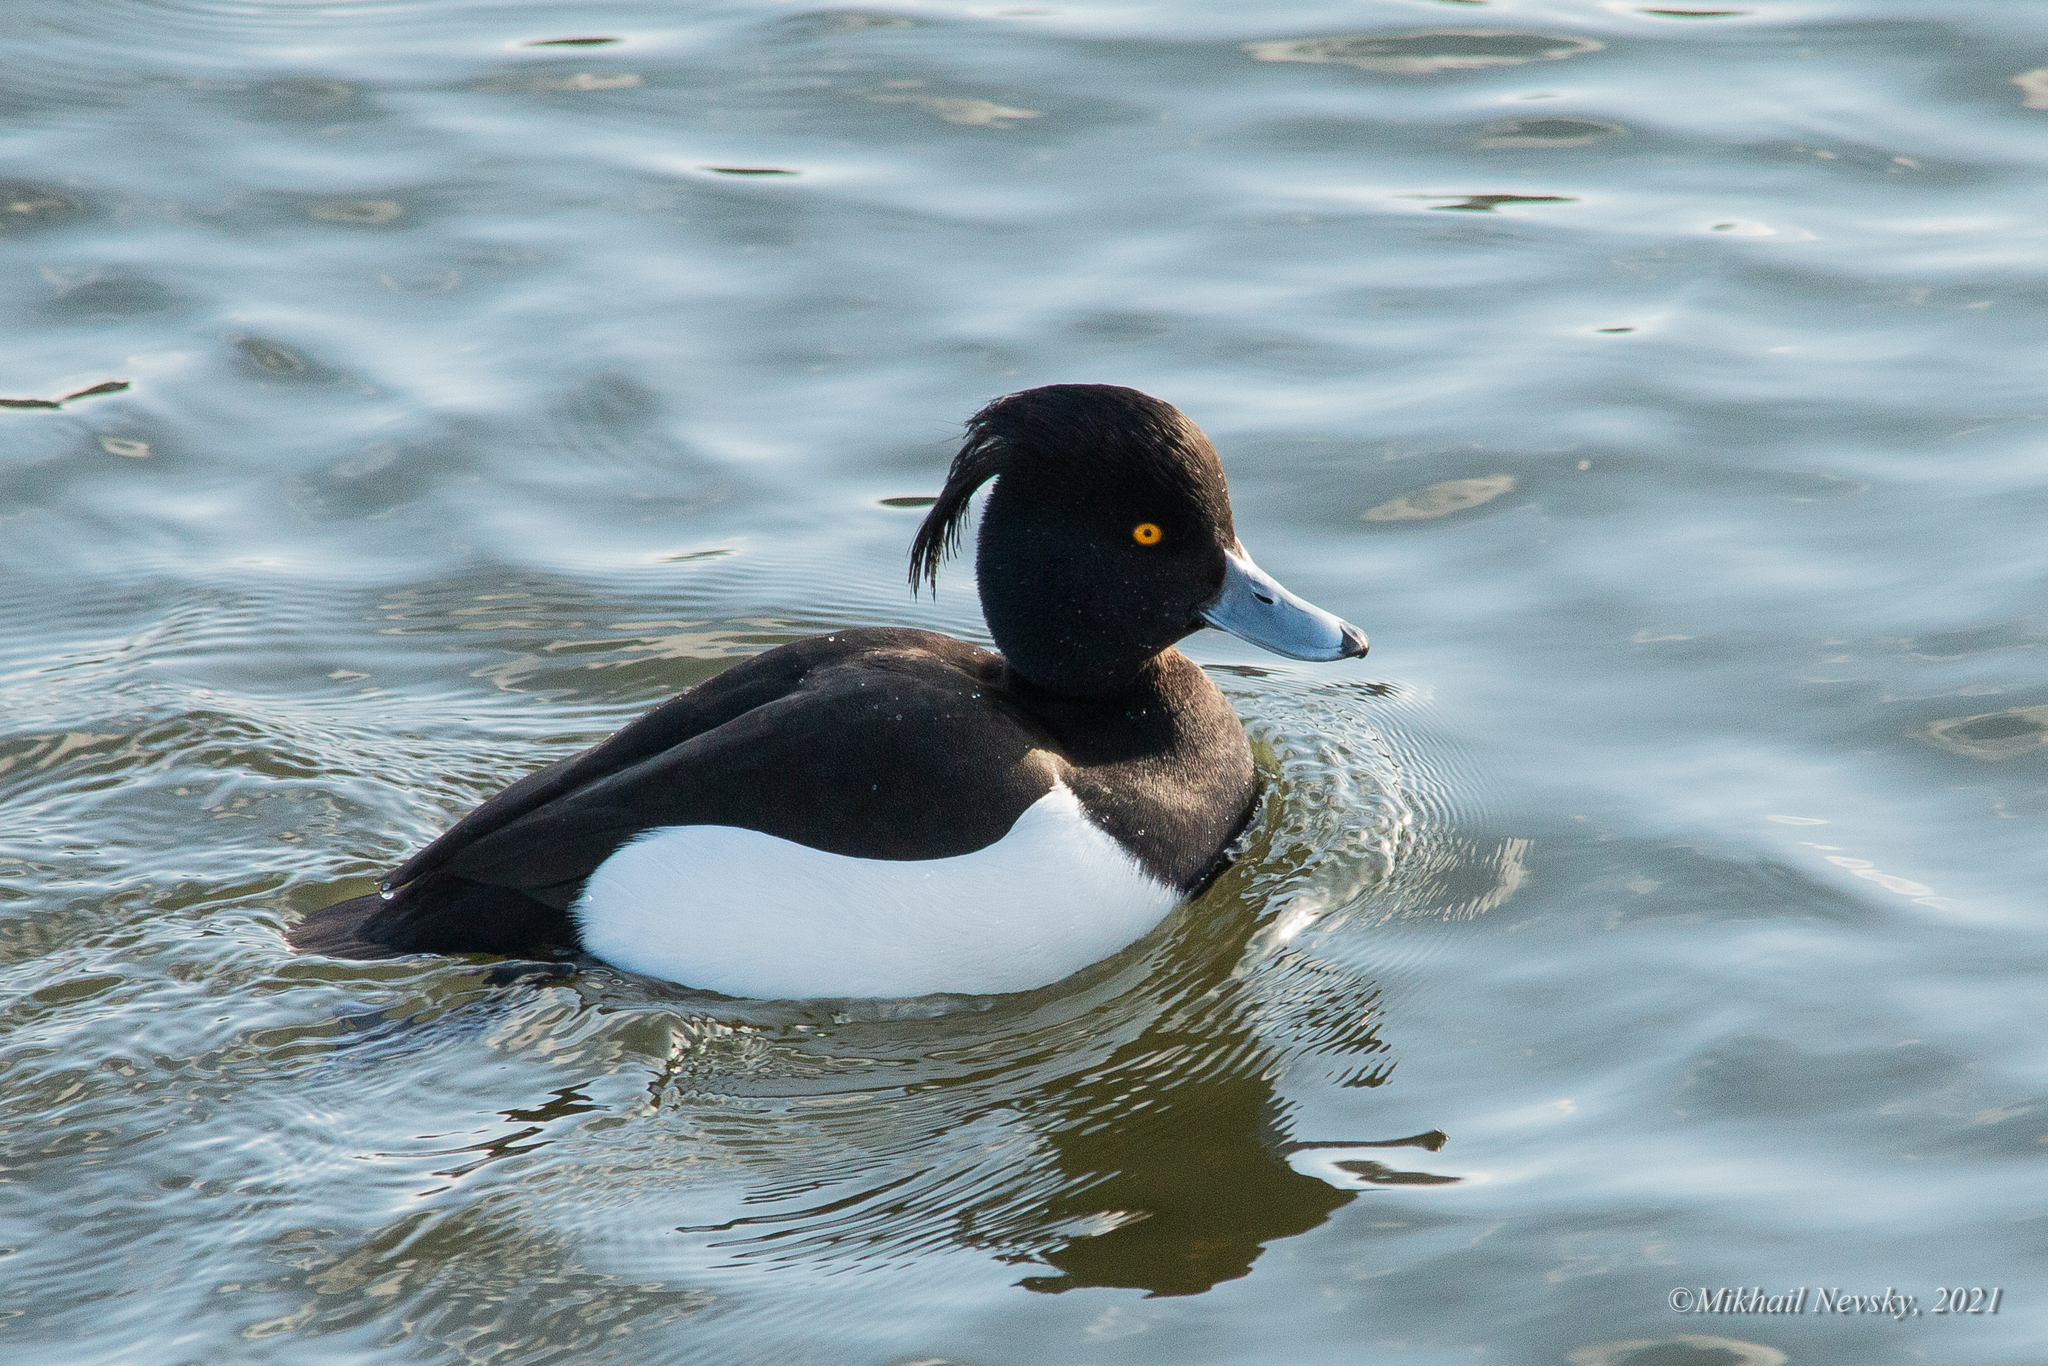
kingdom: Animalia
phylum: Chordata
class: Aves
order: Anseriformes
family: Anatidae
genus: Aythya
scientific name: Aythya fuligula
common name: Tufted duck
